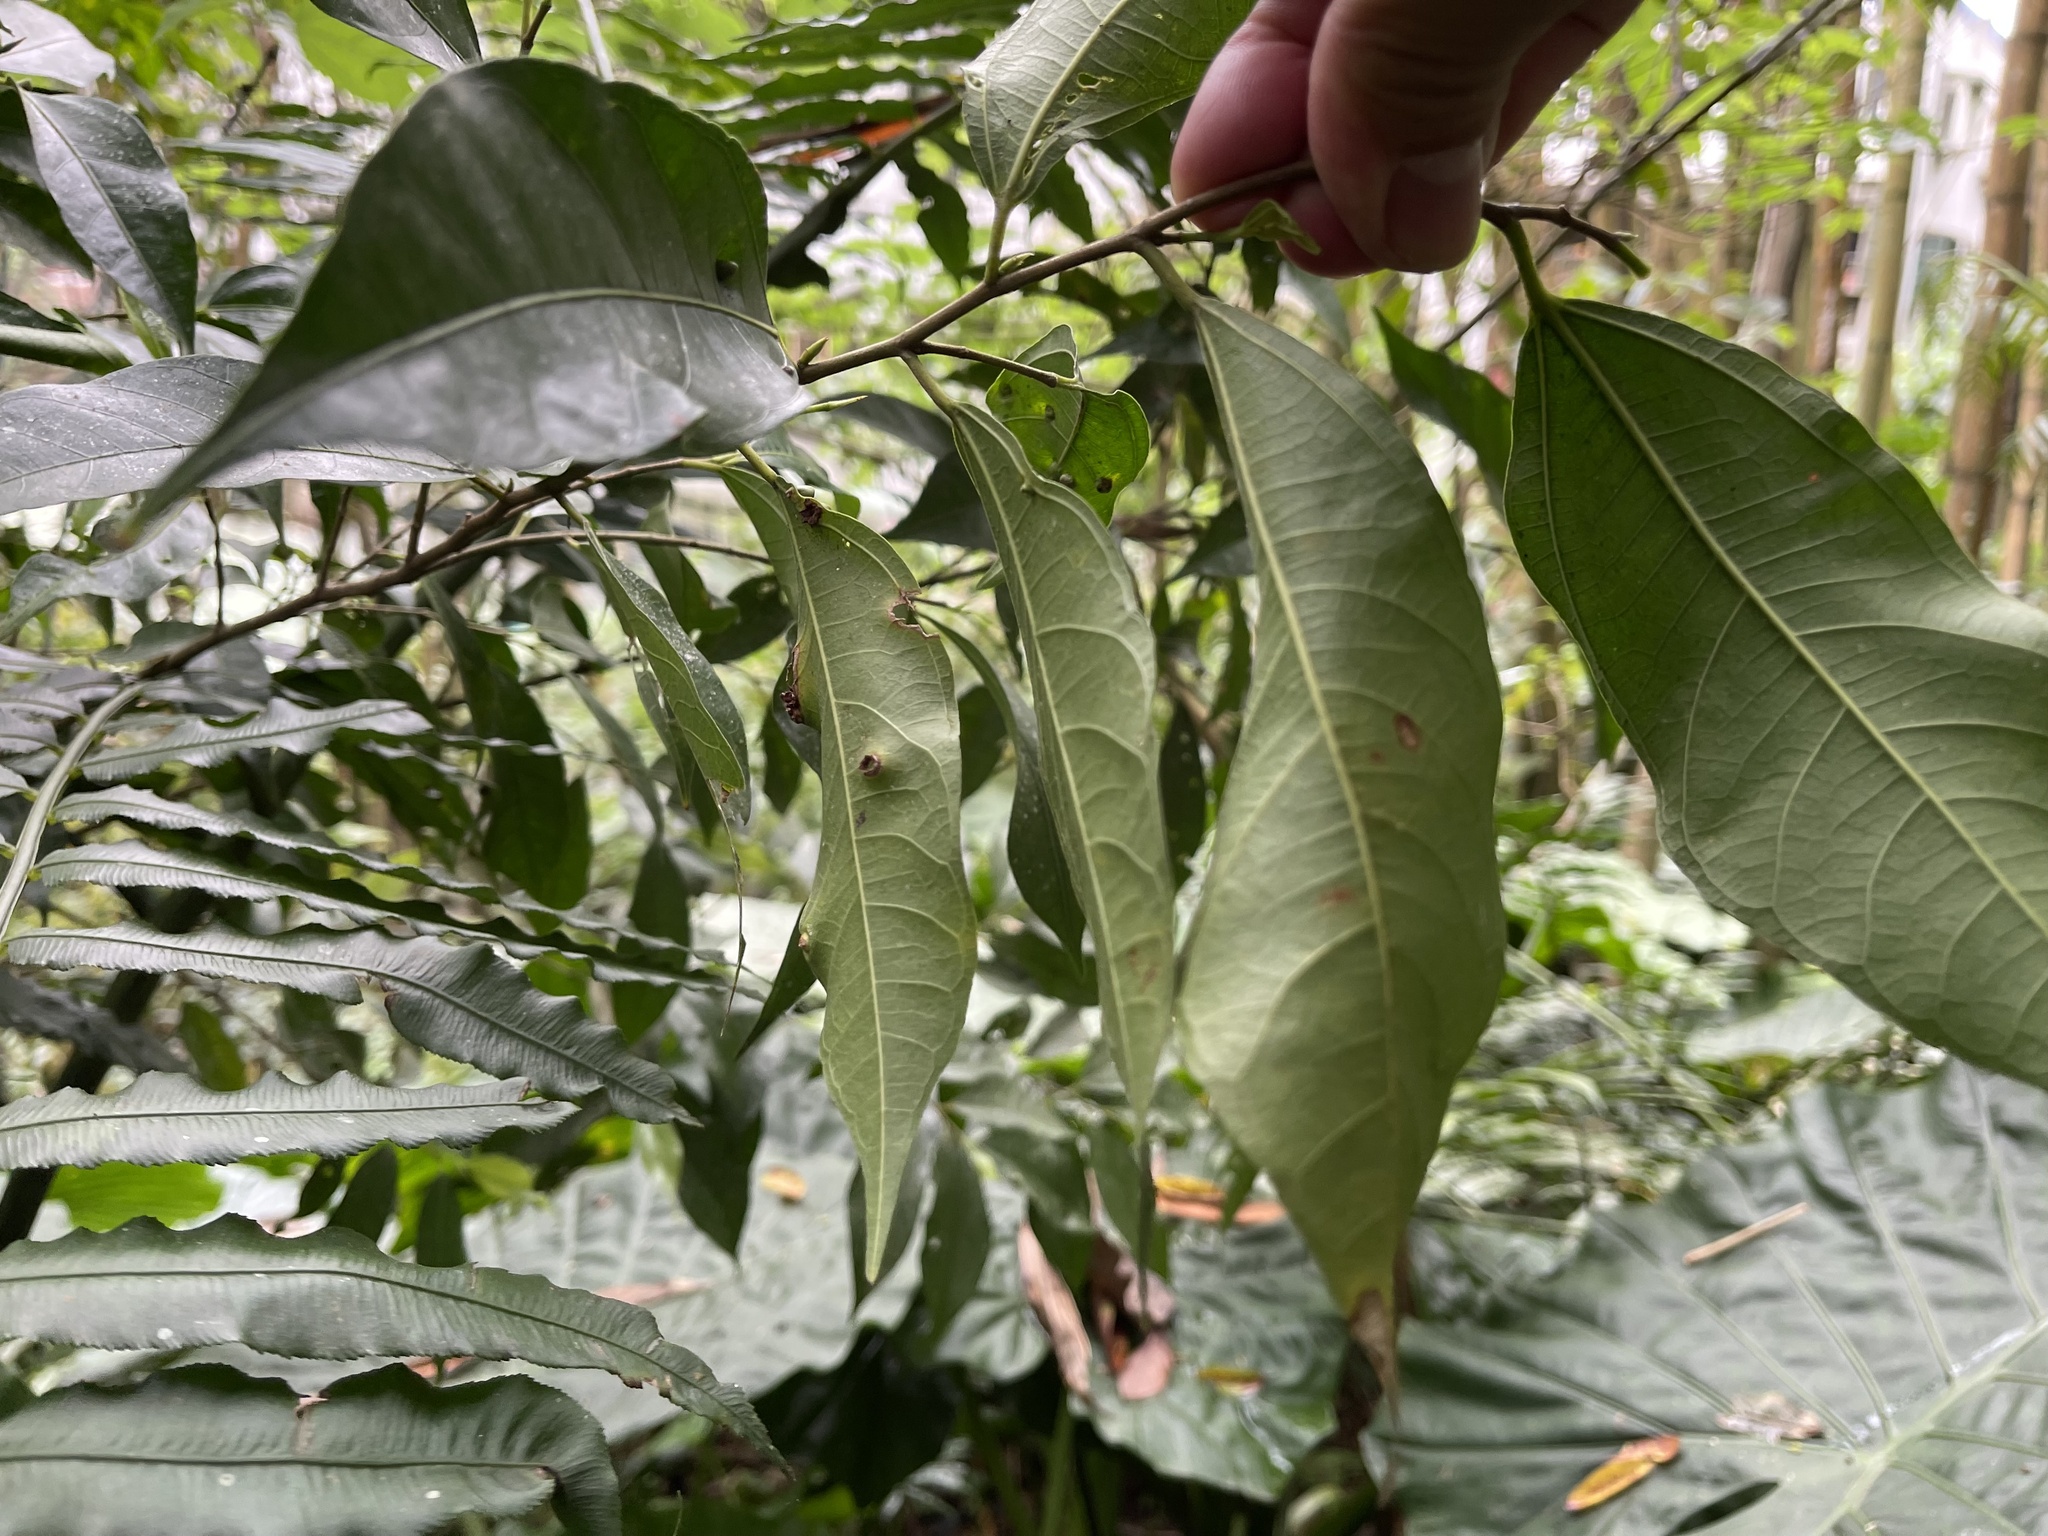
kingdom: Plantae
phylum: Tracheophyta
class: Magnoliopsida
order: Rosales
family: Moraceae
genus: Ficus
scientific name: Ficus ampelos
